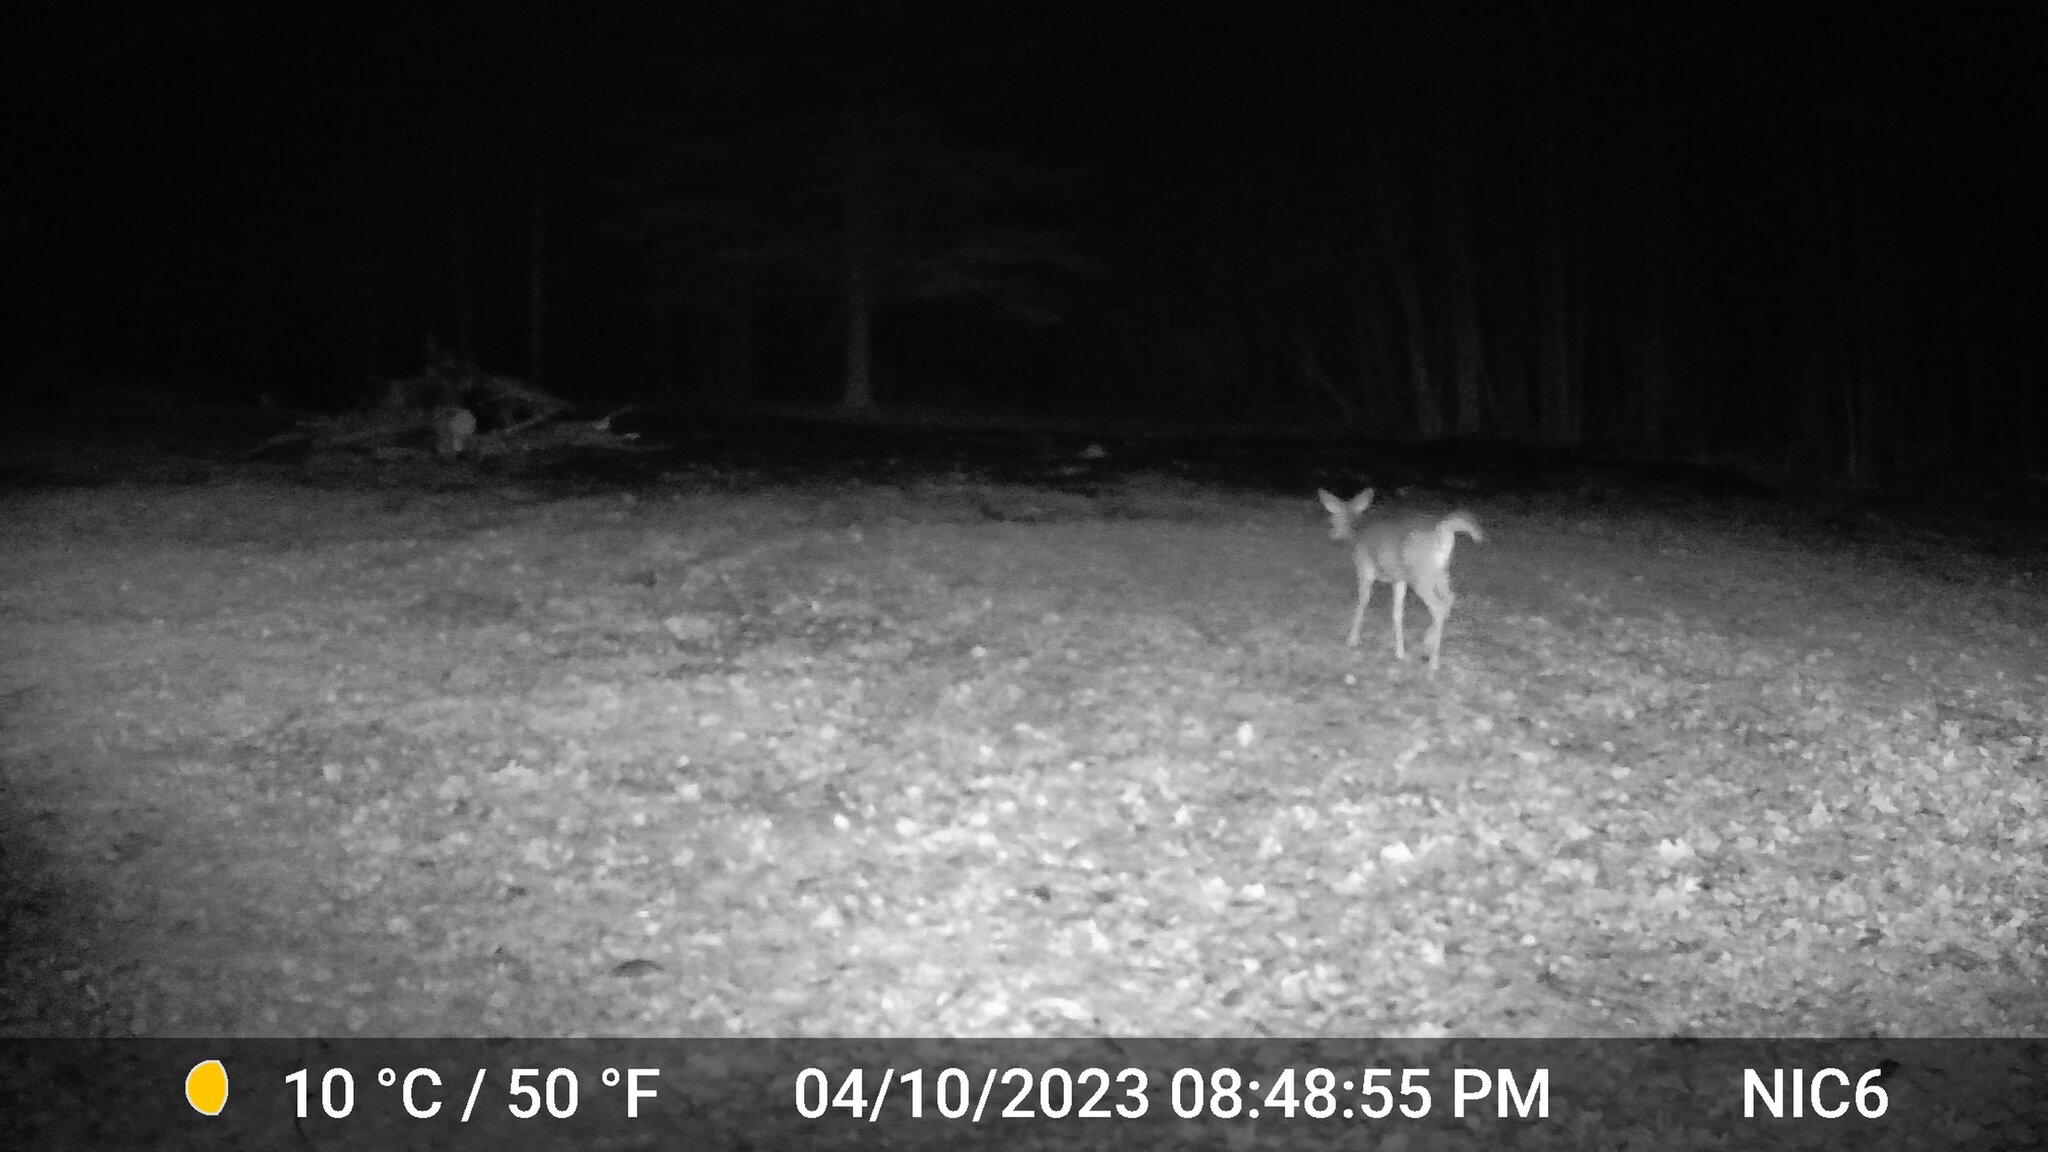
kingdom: Animalia
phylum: Chordata
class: Mammalia
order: Artiodactyla
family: Cervidae
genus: Odocoileus
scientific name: Odocoileus virginianus
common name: White-tailed deer
